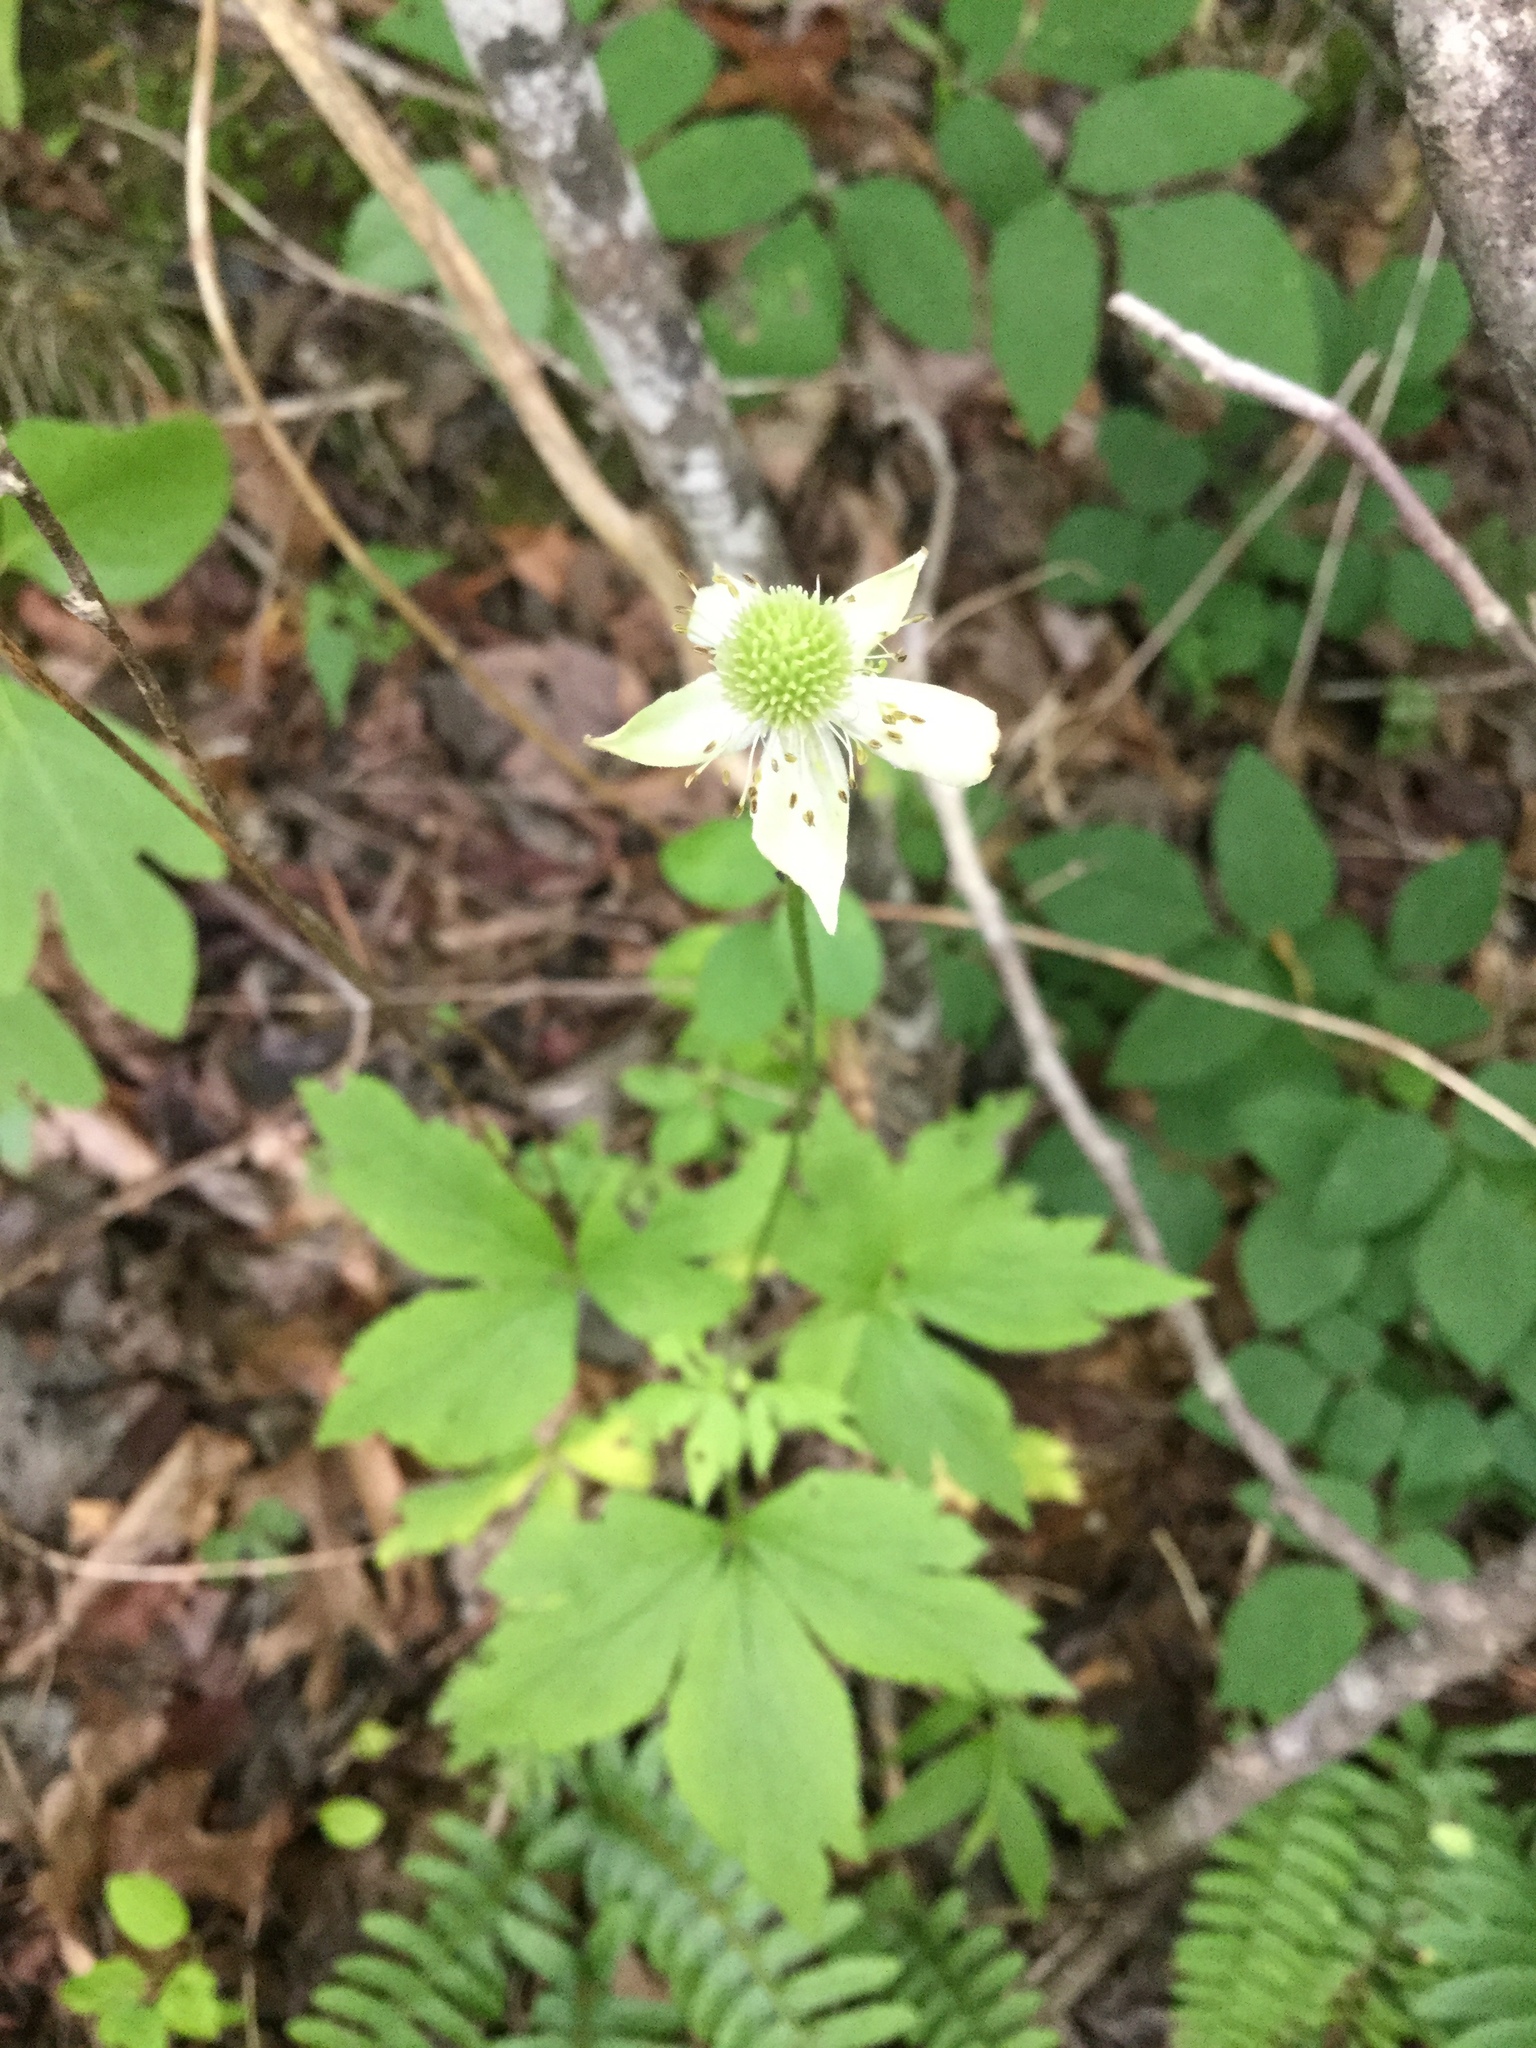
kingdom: Plantae
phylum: Tracheophyta
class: Magnoliopsida
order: Ranunculales
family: Ranunculaceae
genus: Anemone
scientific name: Anemone virginiana
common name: Tall anemone
